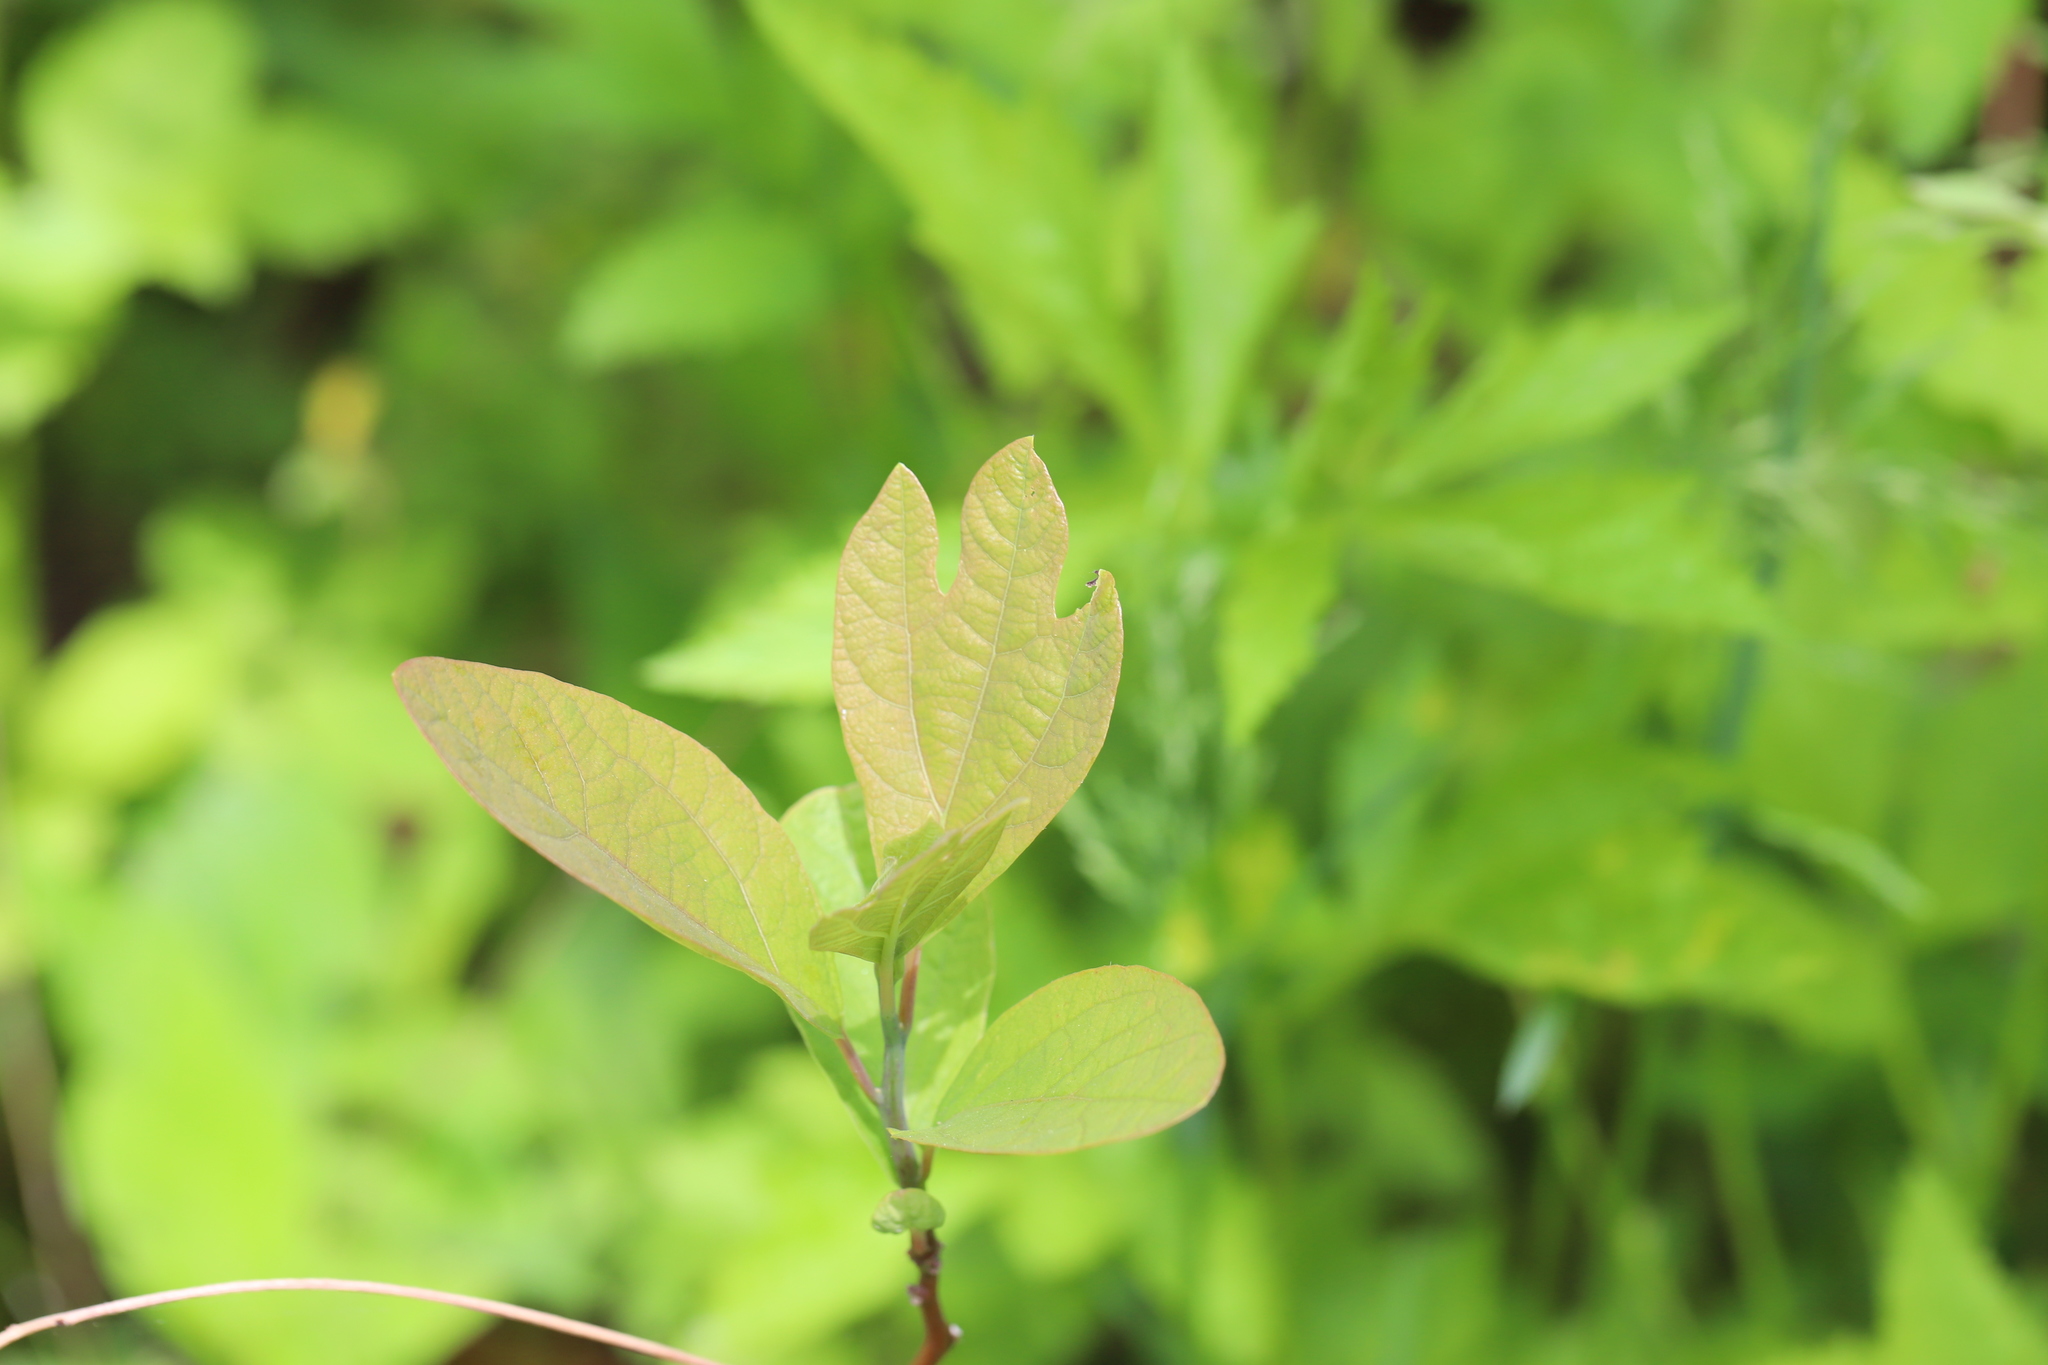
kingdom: Plantae
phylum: Tracheophyta
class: Magnoliopsida
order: Laurales
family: Lauraceae
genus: Sassafras
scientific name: Sassafras albidum
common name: Sassafras
